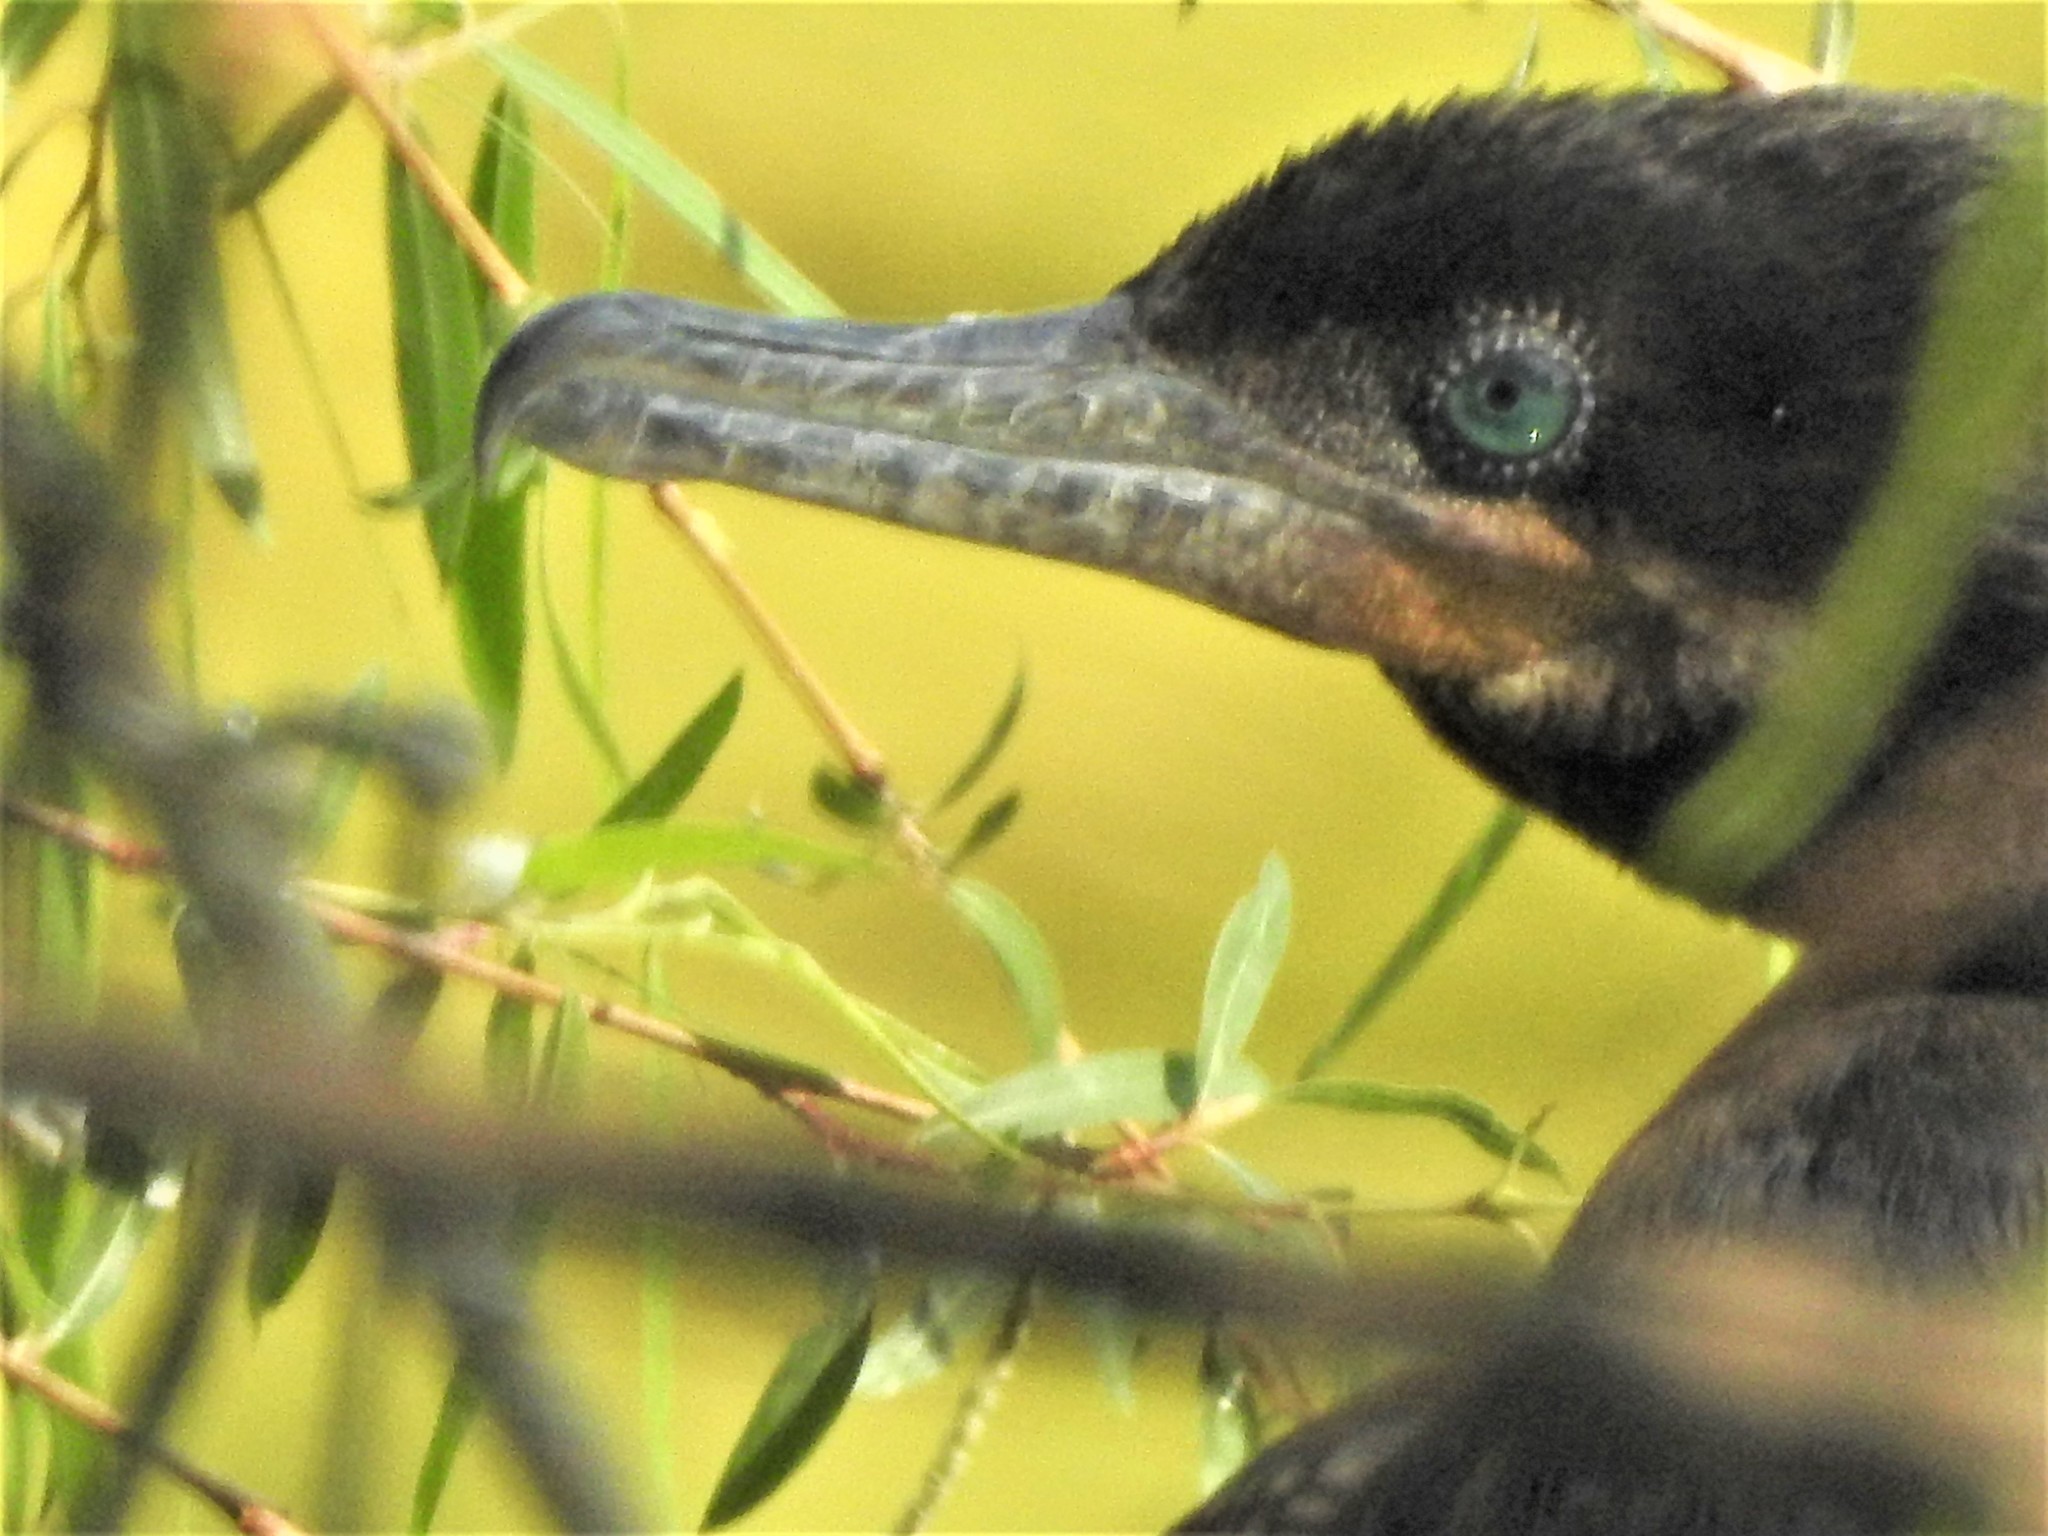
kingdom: Animalia
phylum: Chordata
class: Aves
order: Suliformes
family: Phalacrocoracidae
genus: Phalacrocorax
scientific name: Phalacrocorax brasilianus
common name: Neotropic cormorant
